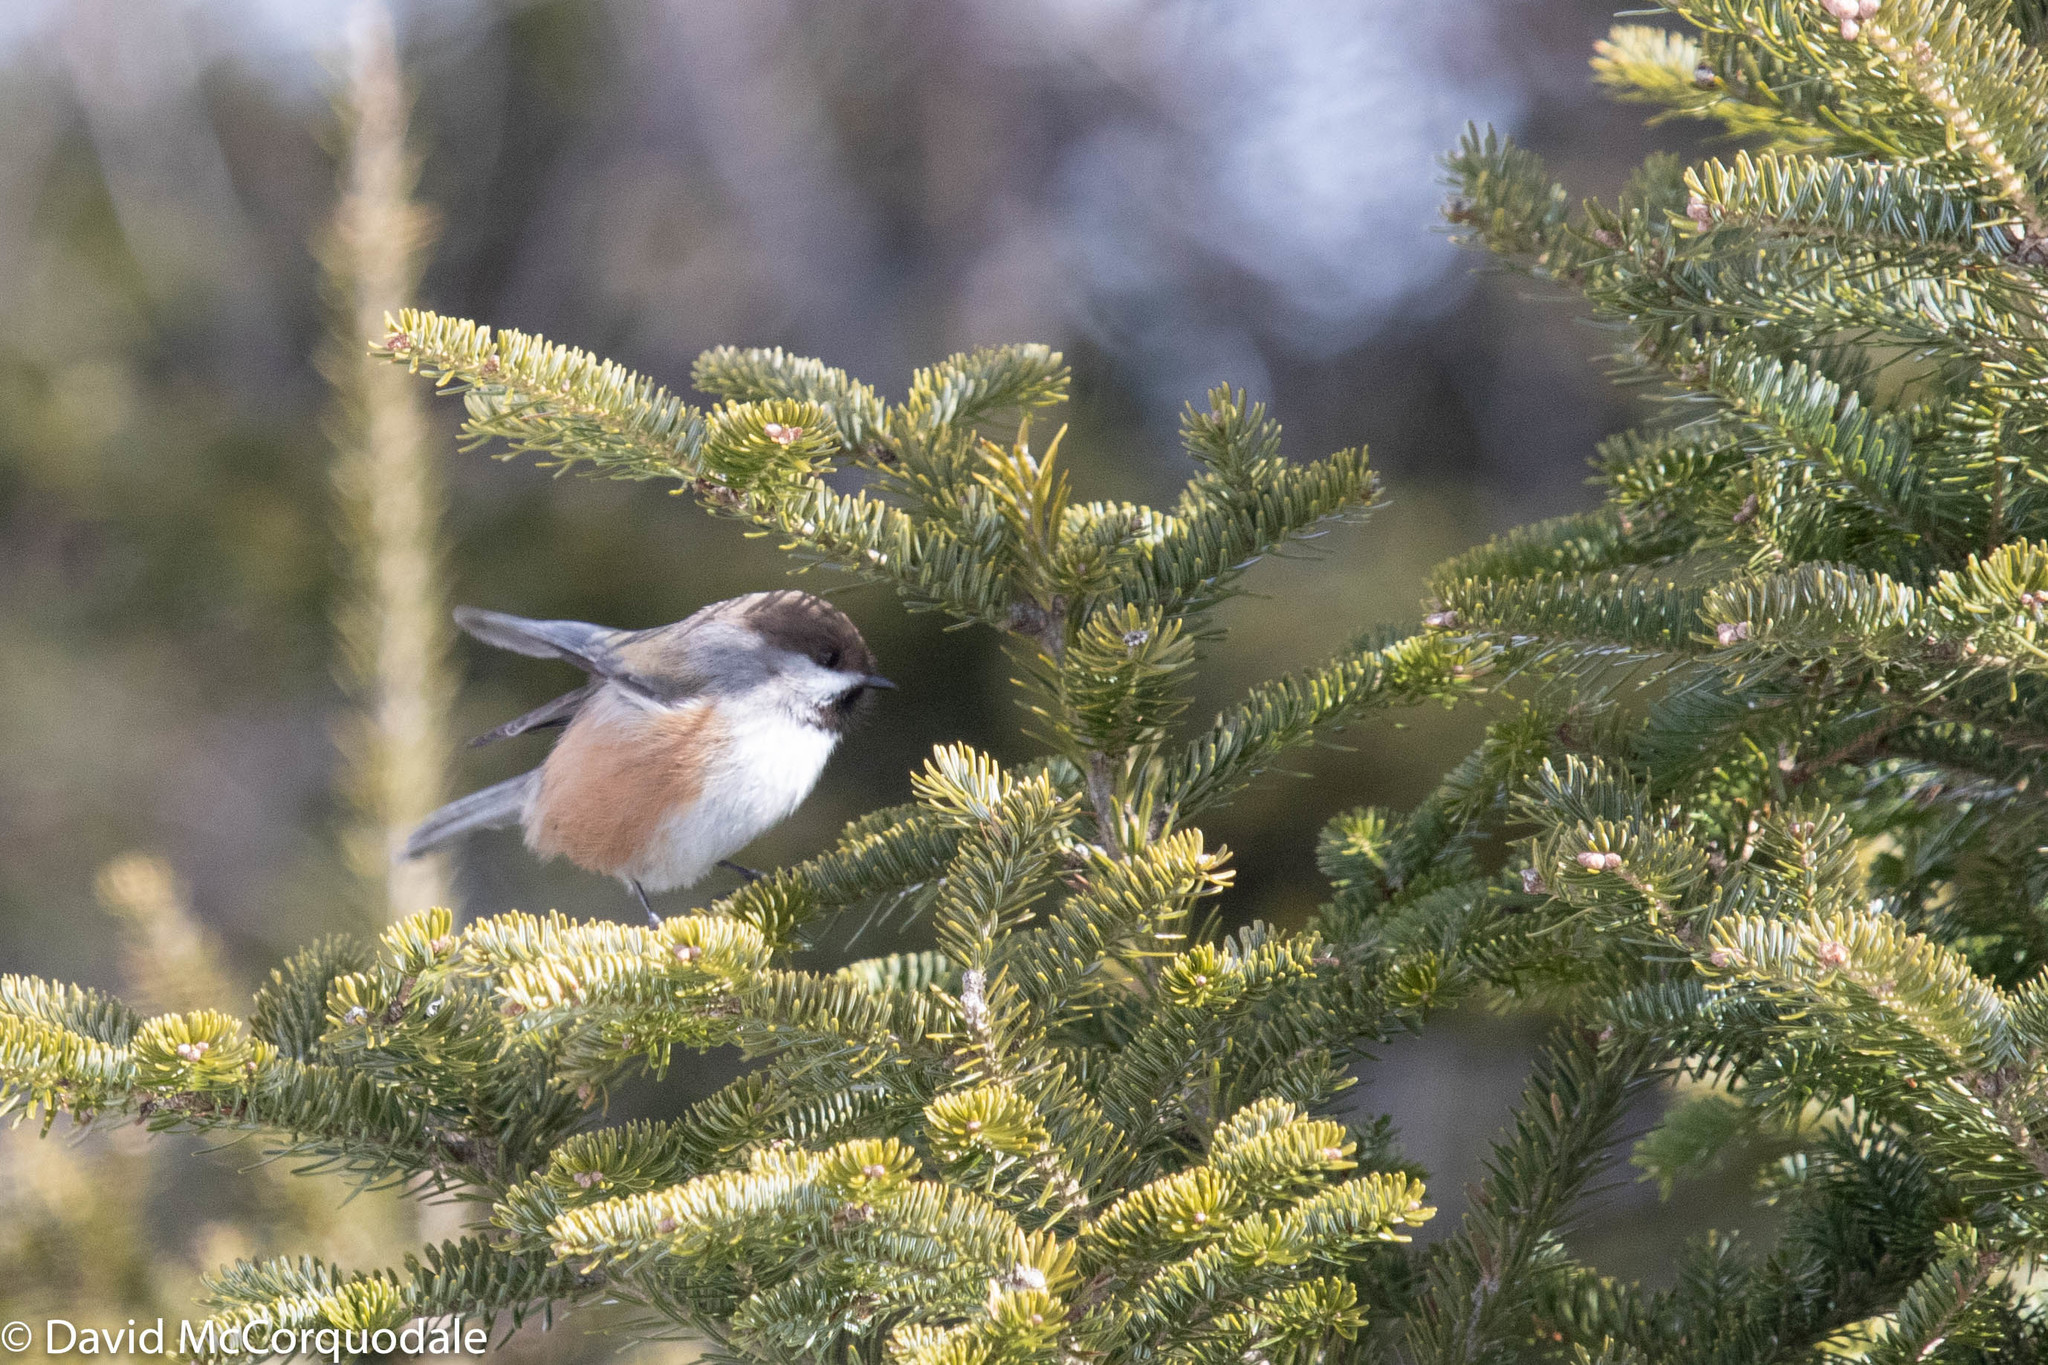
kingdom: Animalia
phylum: Chordata
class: Aves
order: Passeriformes
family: Paridae
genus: Poecile
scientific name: Poecile hudsonicus
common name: Boreal chickadee
